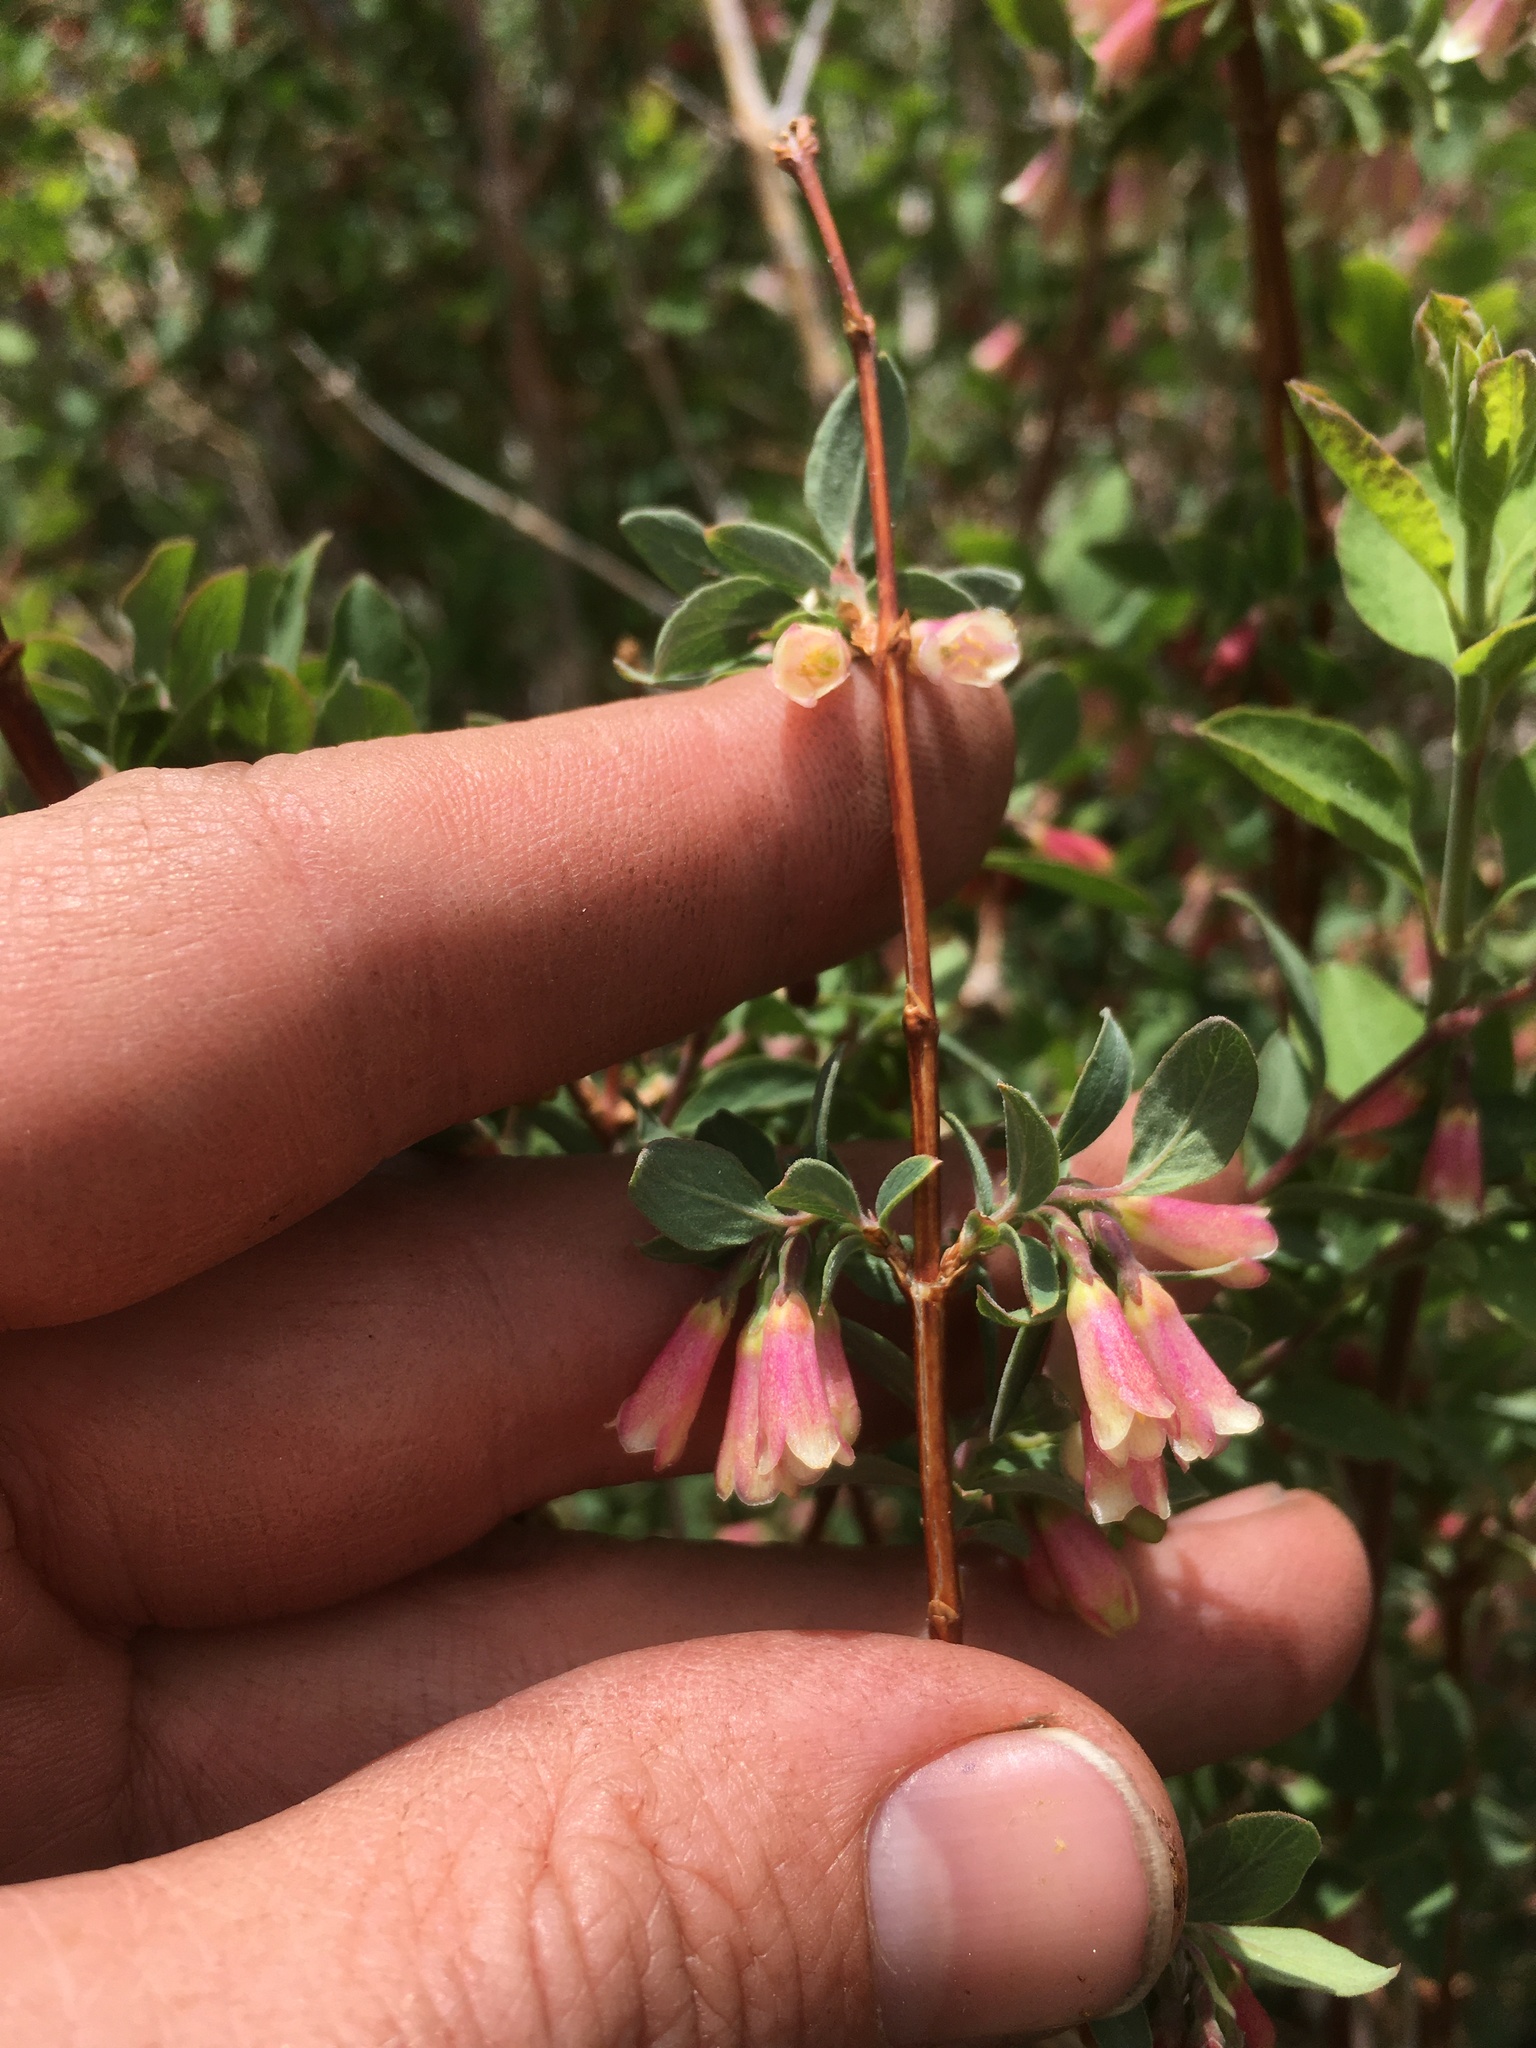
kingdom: Plantae
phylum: Tracheophyta
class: Magnoliopsida
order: Dipsacales
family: Caprifoliaceae
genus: Symphoricarpos
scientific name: Symphoricarpos rotundifolius
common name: Round-leaved snowberry
